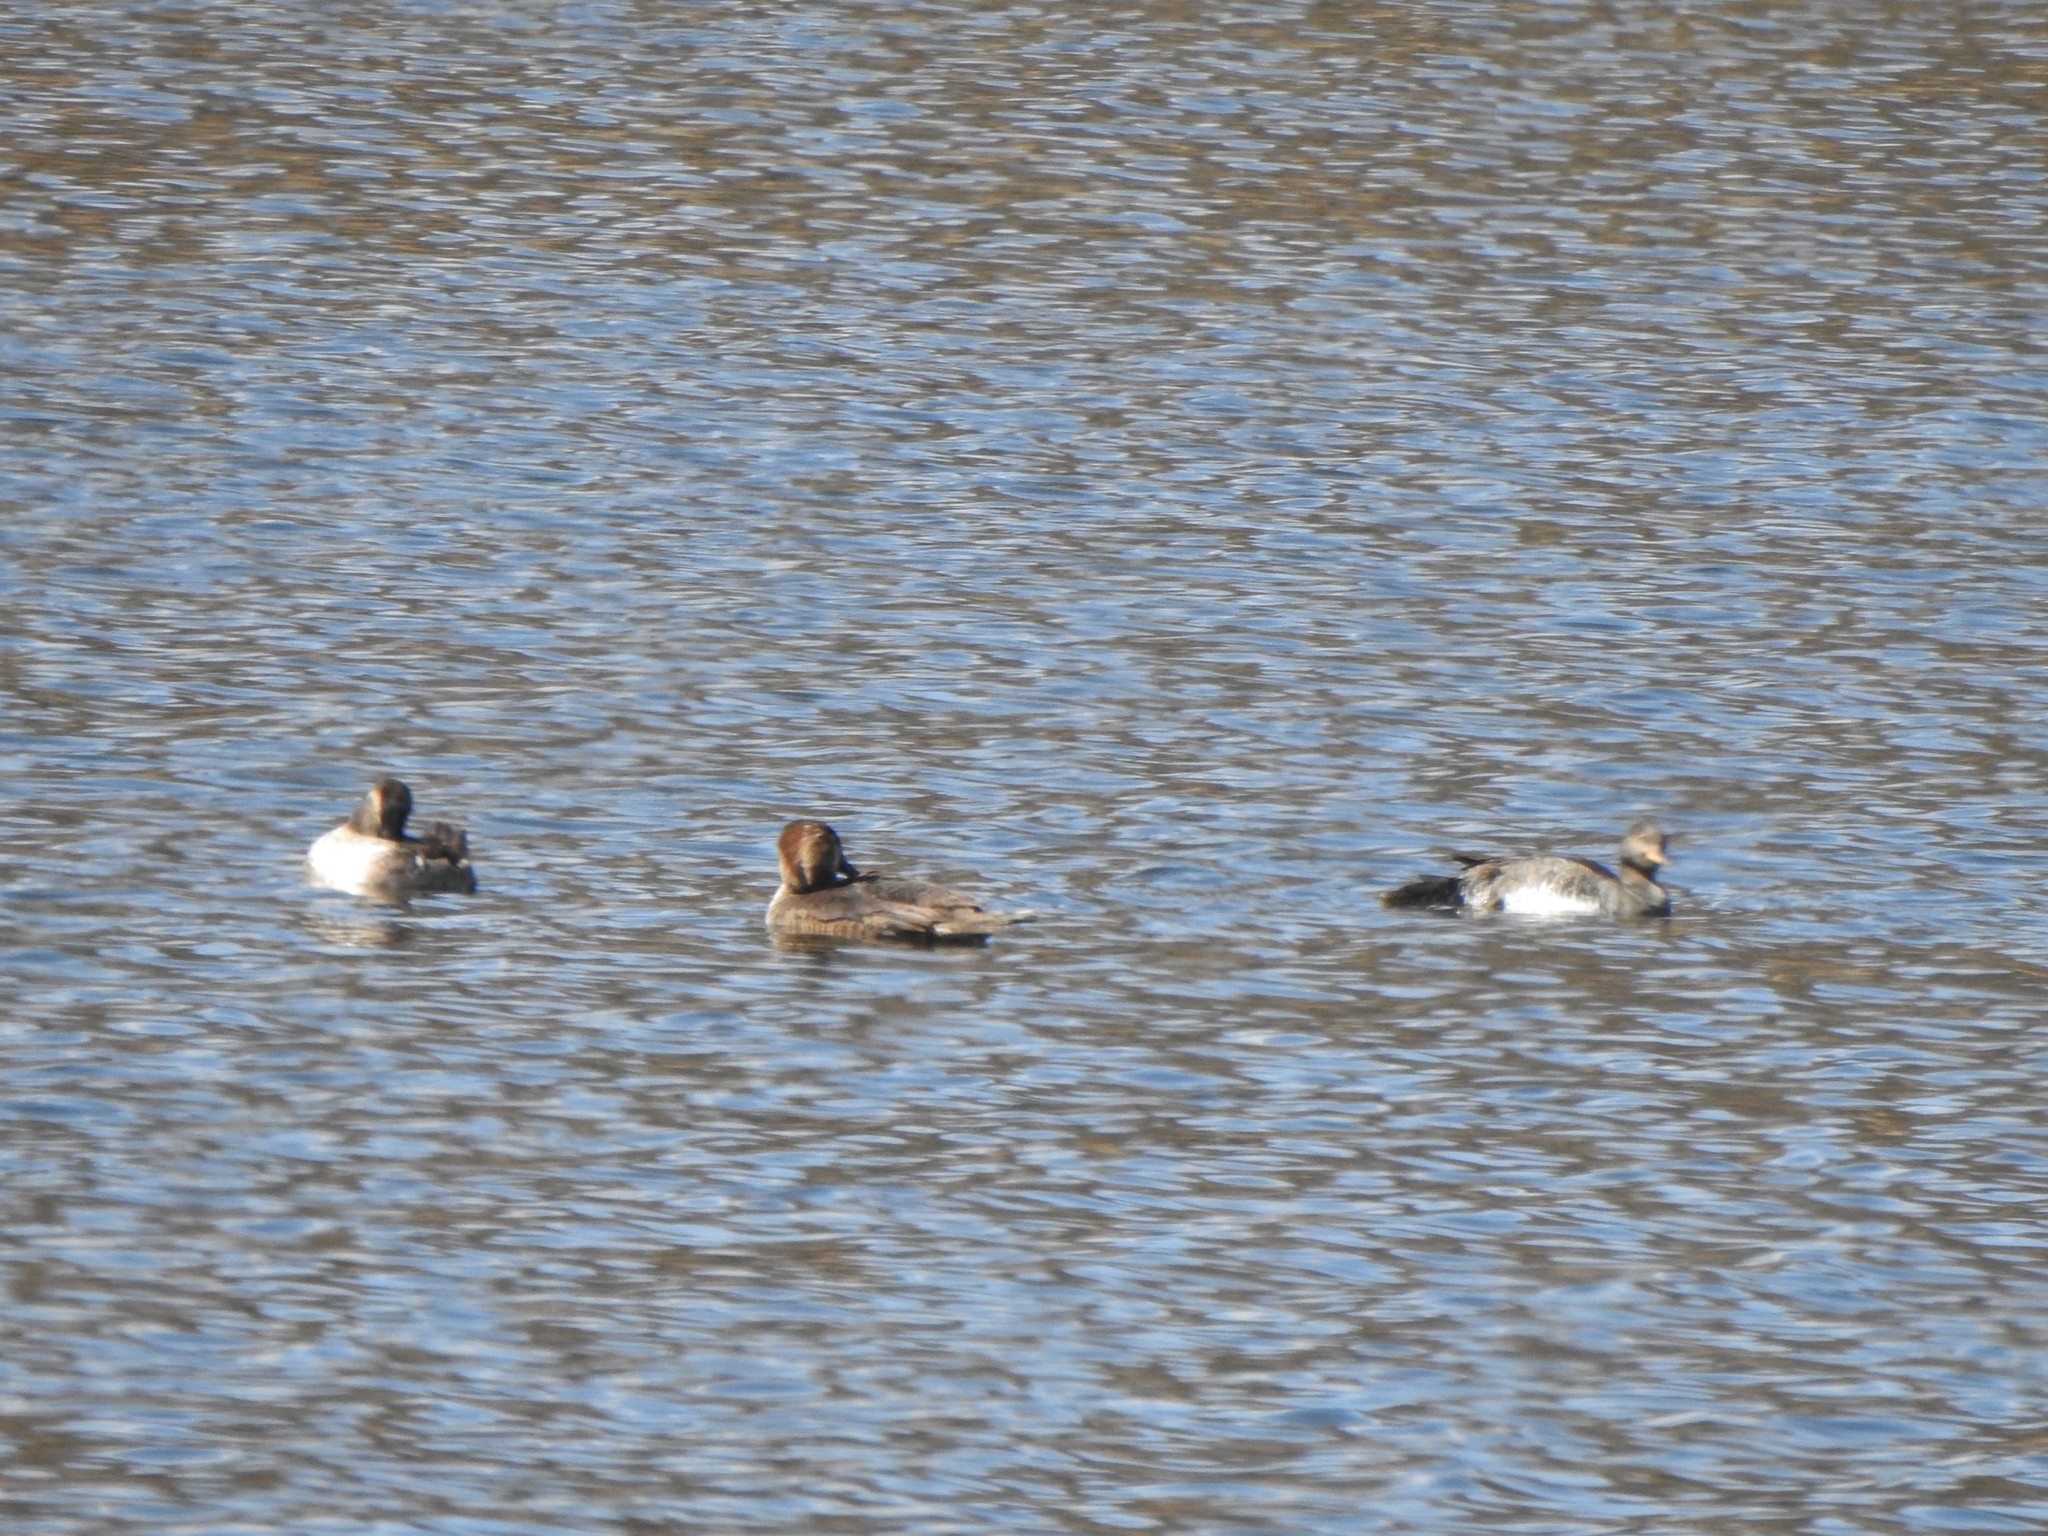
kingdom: Animalia
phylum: Chordata
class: Aves
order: Anseriformes
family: Anatidae
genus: Lophodytes
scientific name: Lophodytes cucullatus
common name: Hooded merganser
